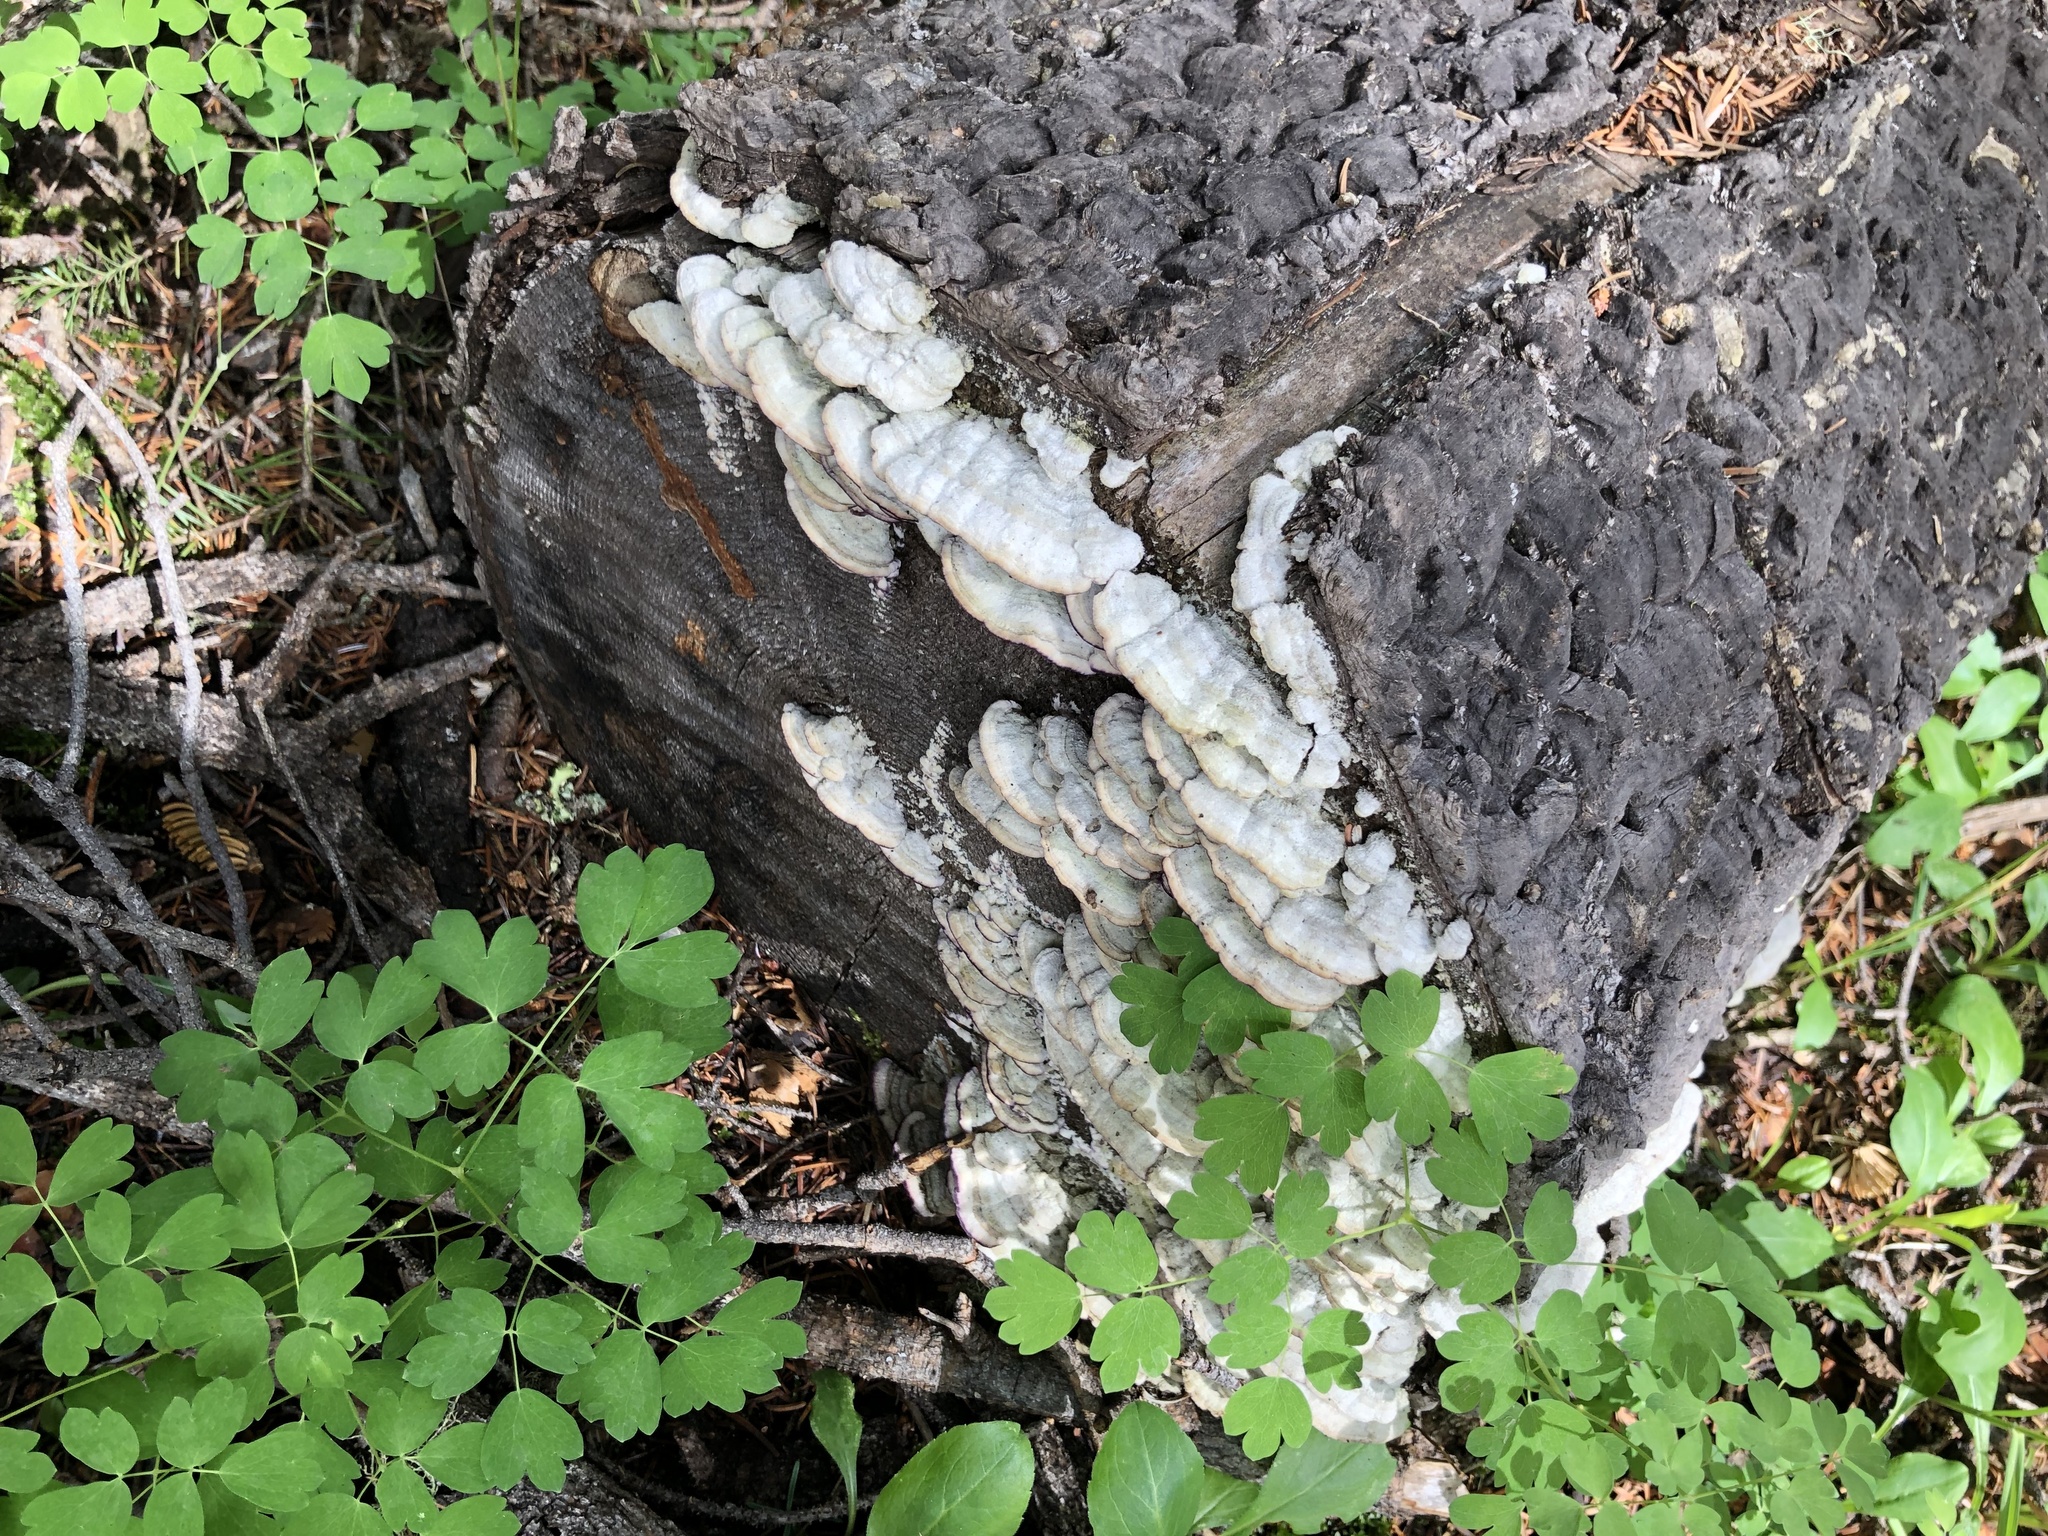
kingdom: Fungi
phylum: Basidiomycota
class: Agaricomycetes
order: Hymenochaetales
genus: Trichaptum
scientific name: Trichaptum abietinum
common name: Purplepore bracket
